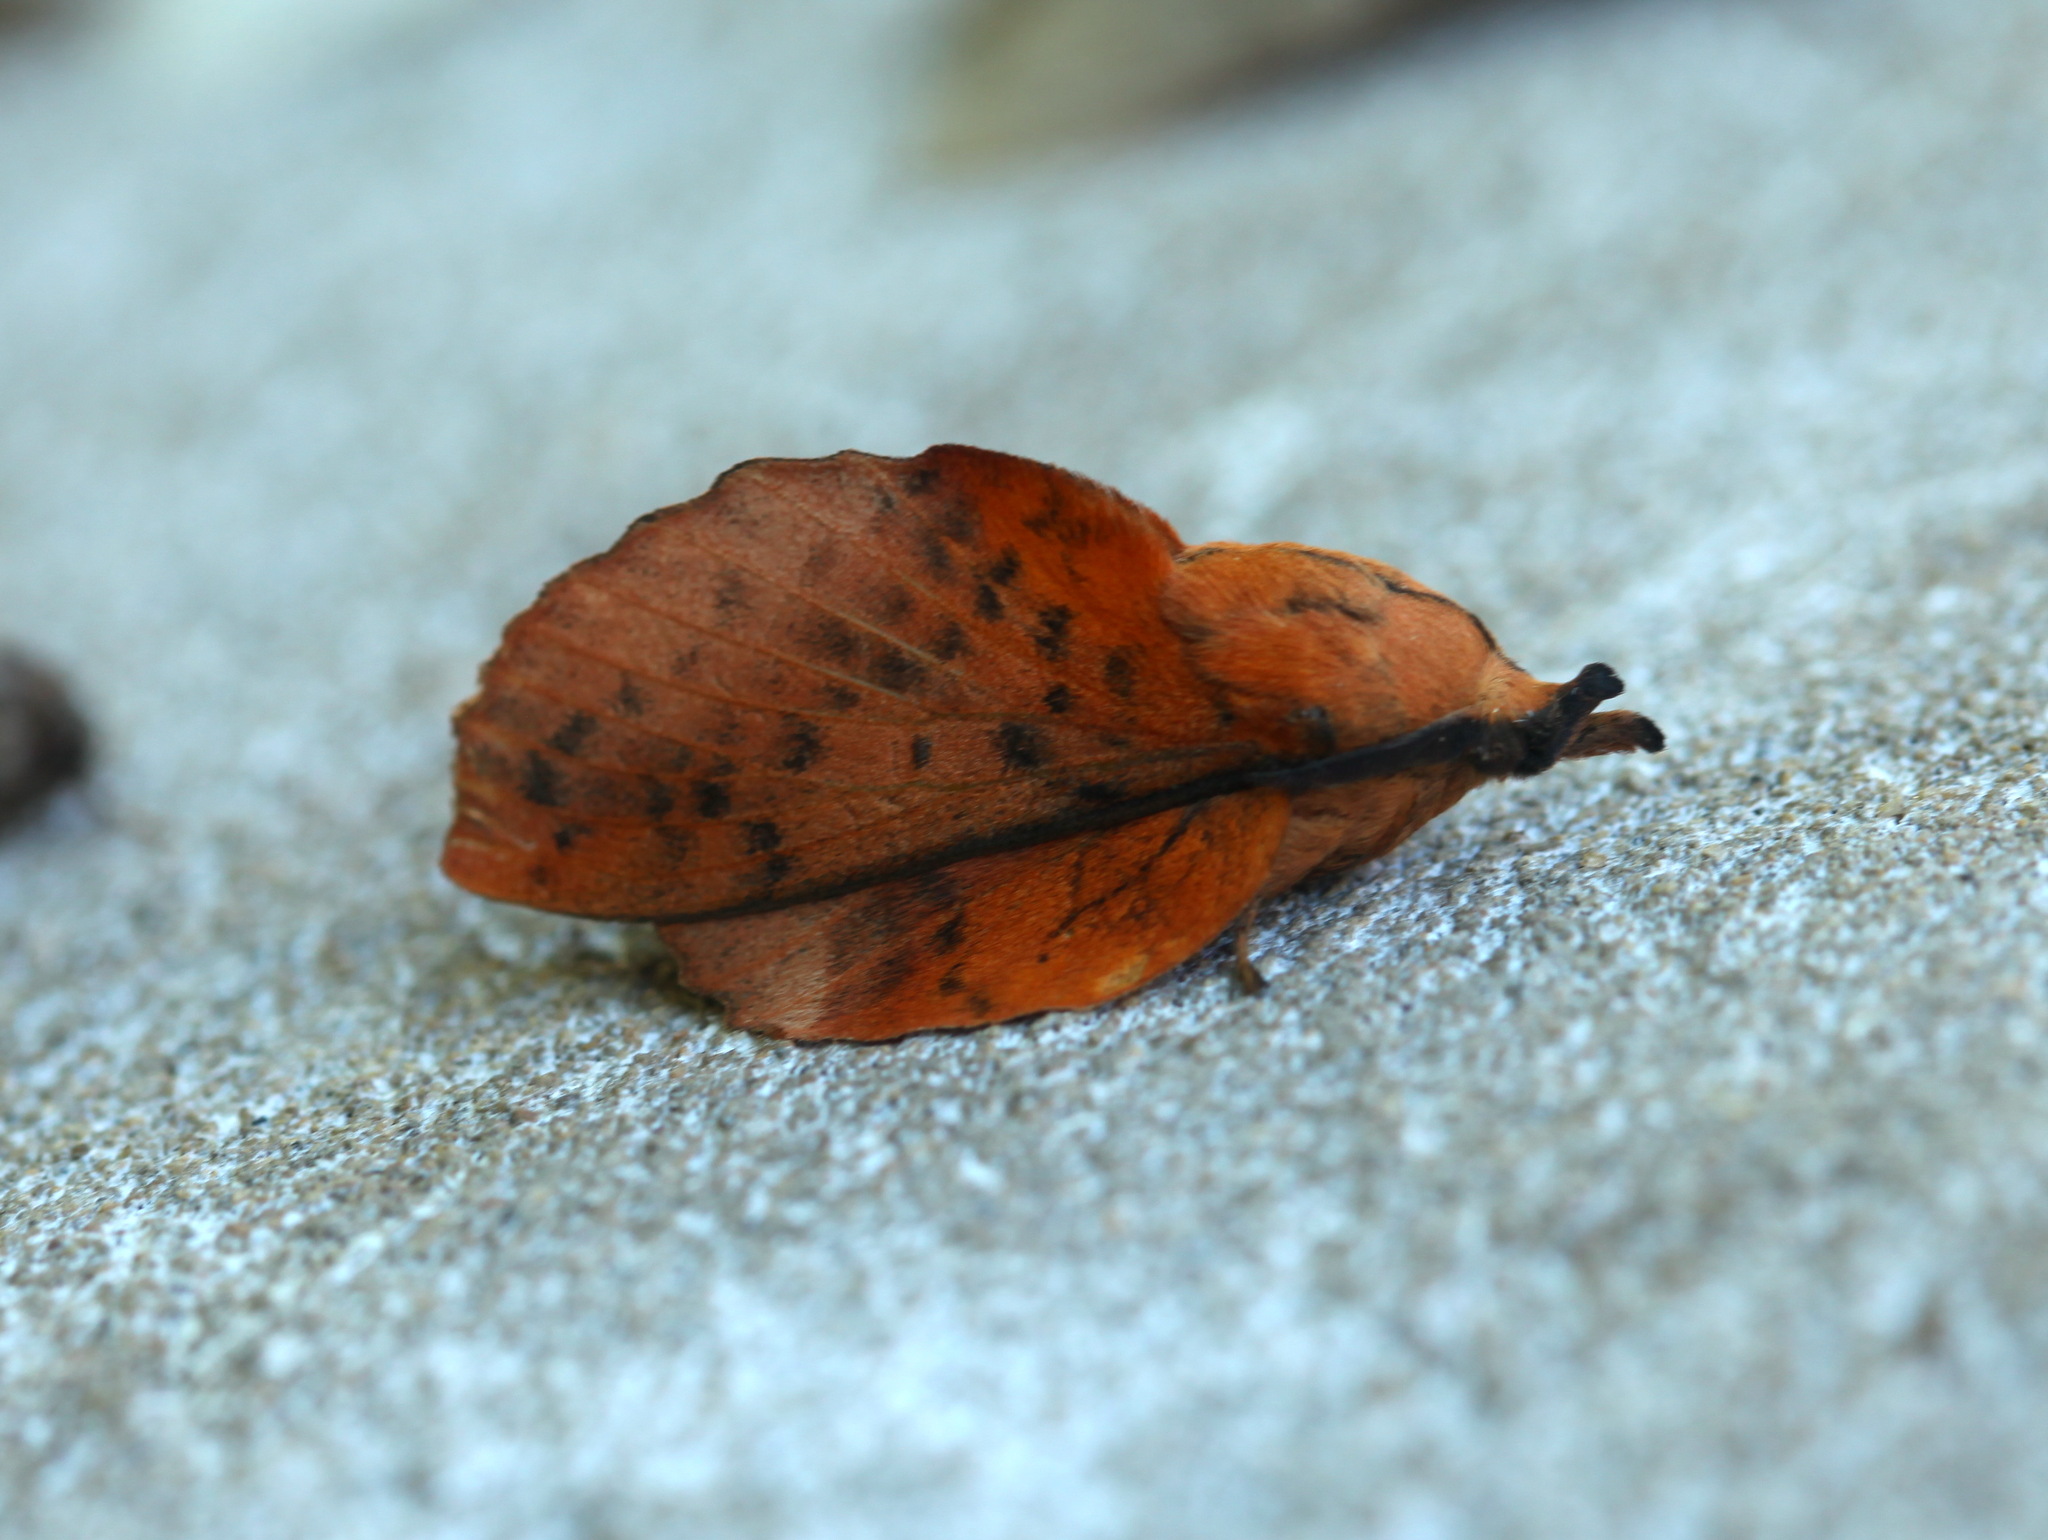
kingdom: Animalia
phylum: Arthropoda
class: Insecta
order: Lepidoptera
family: Lasiocampidae
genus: Gastropacha
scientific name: Gastropacha populifolia
